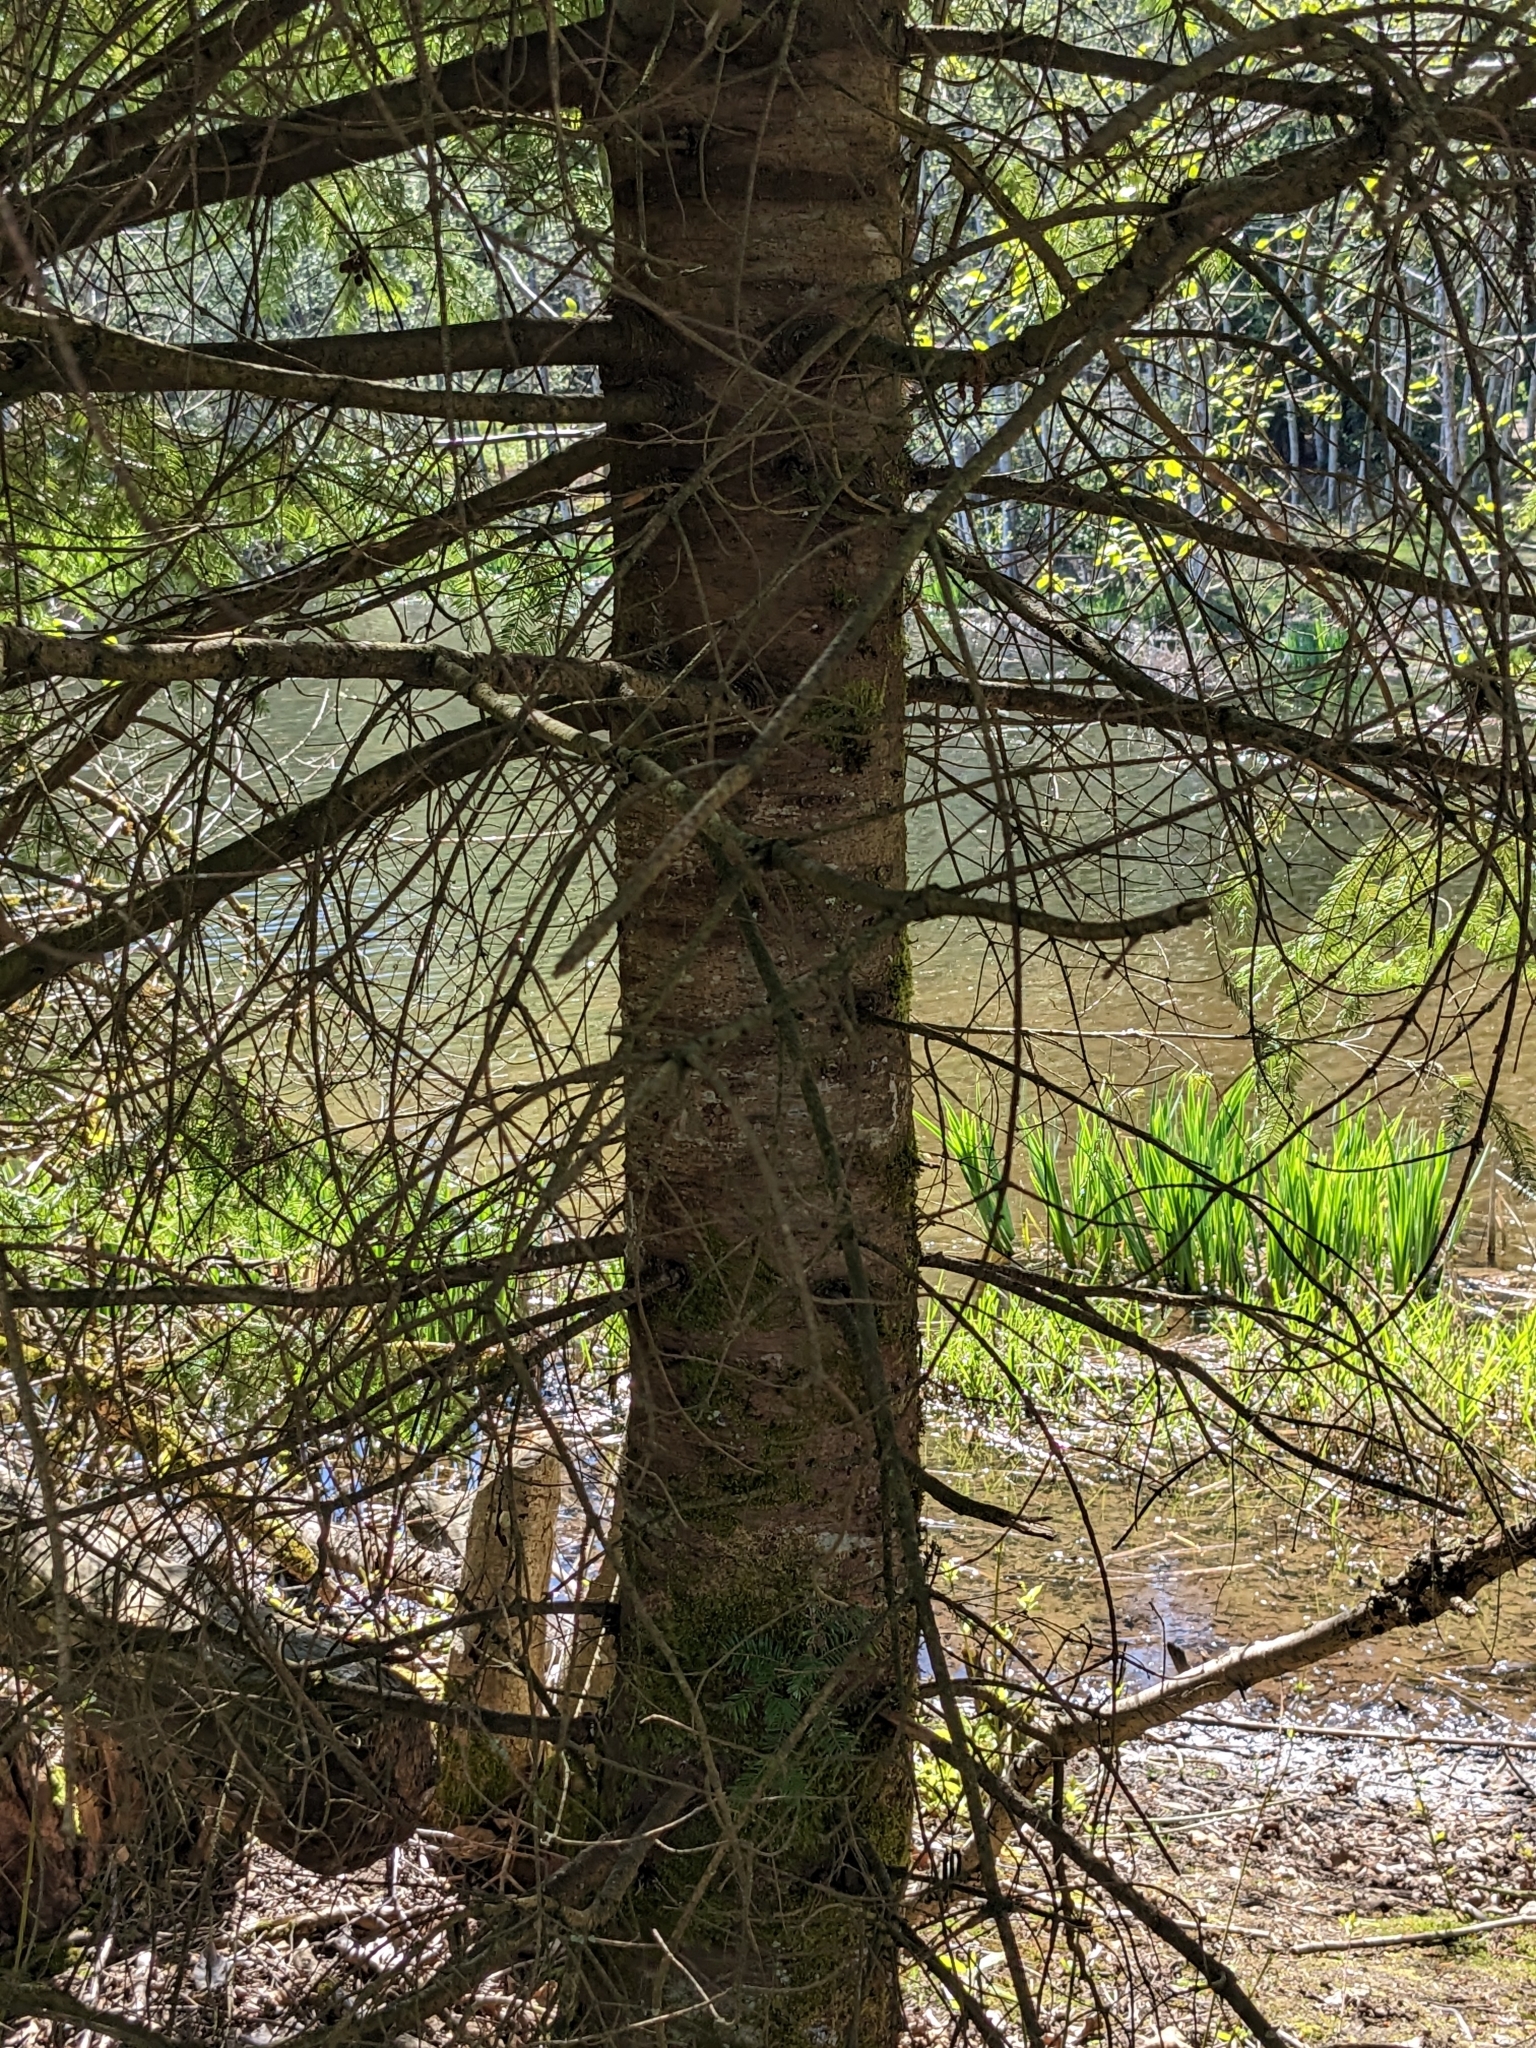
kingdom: Plantae
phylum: Tracheophyta
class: Pinopsida
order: Pinales
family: Pinaceae
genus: Abies
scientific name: Abies grandis
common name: Giant fir
